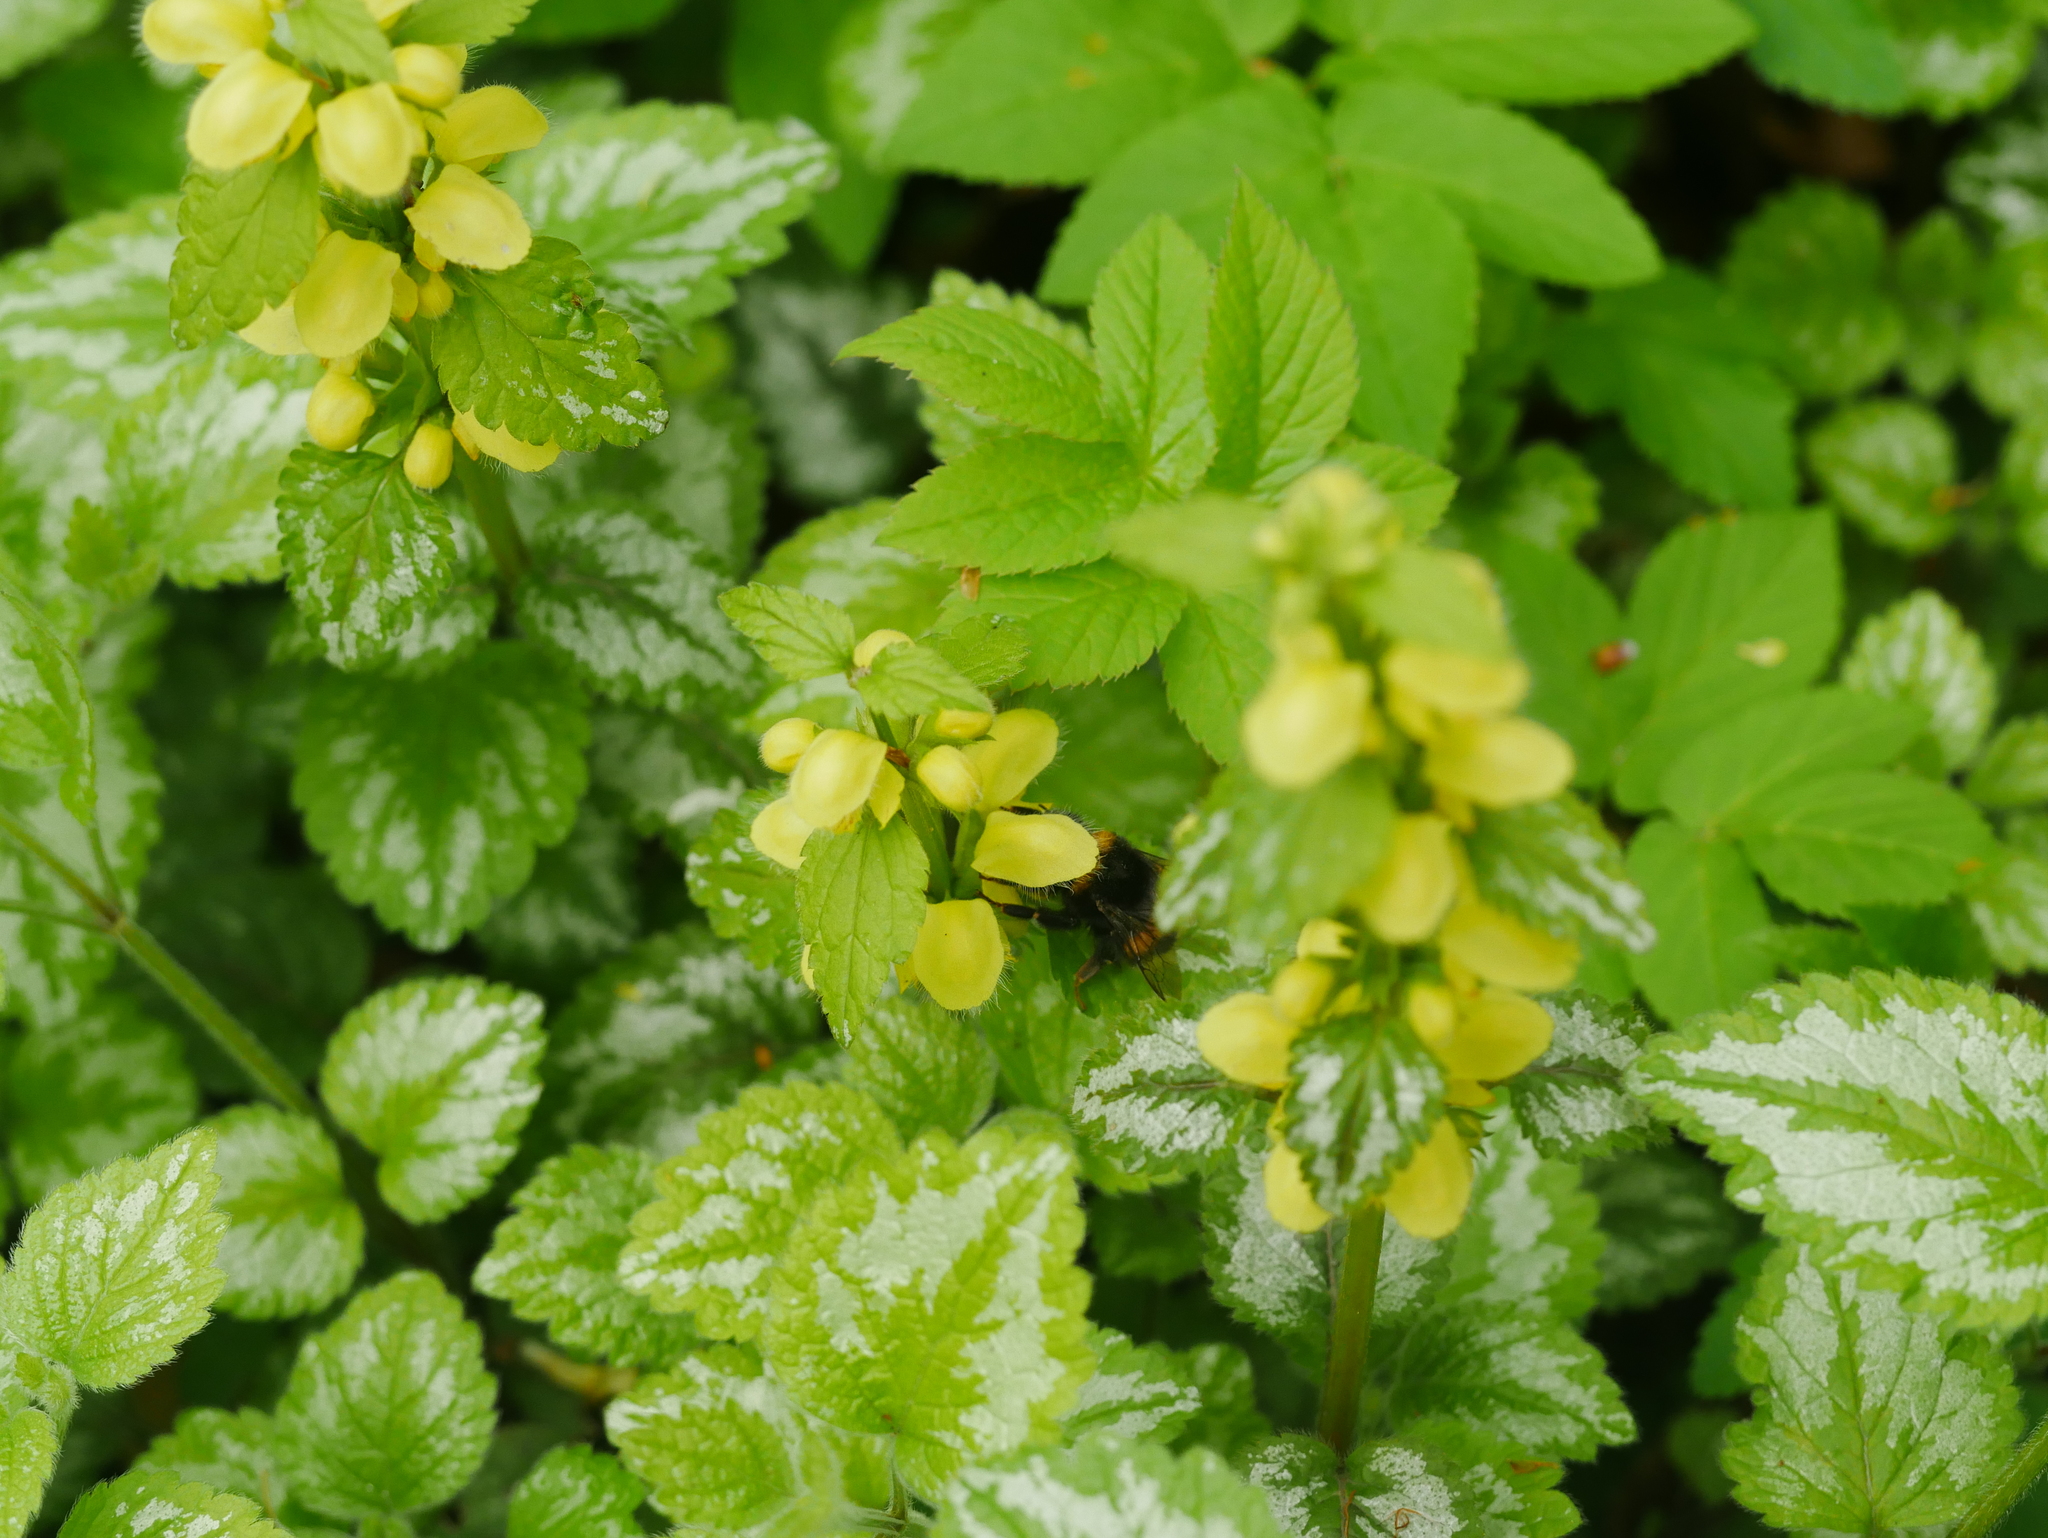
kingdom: Plantae
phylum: Tracheophyta
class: Magnoliopsida
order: Lamiales
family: Lamiaceae
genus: Lamium
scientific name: Lamium galeobdolon
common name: Yellow archangel
